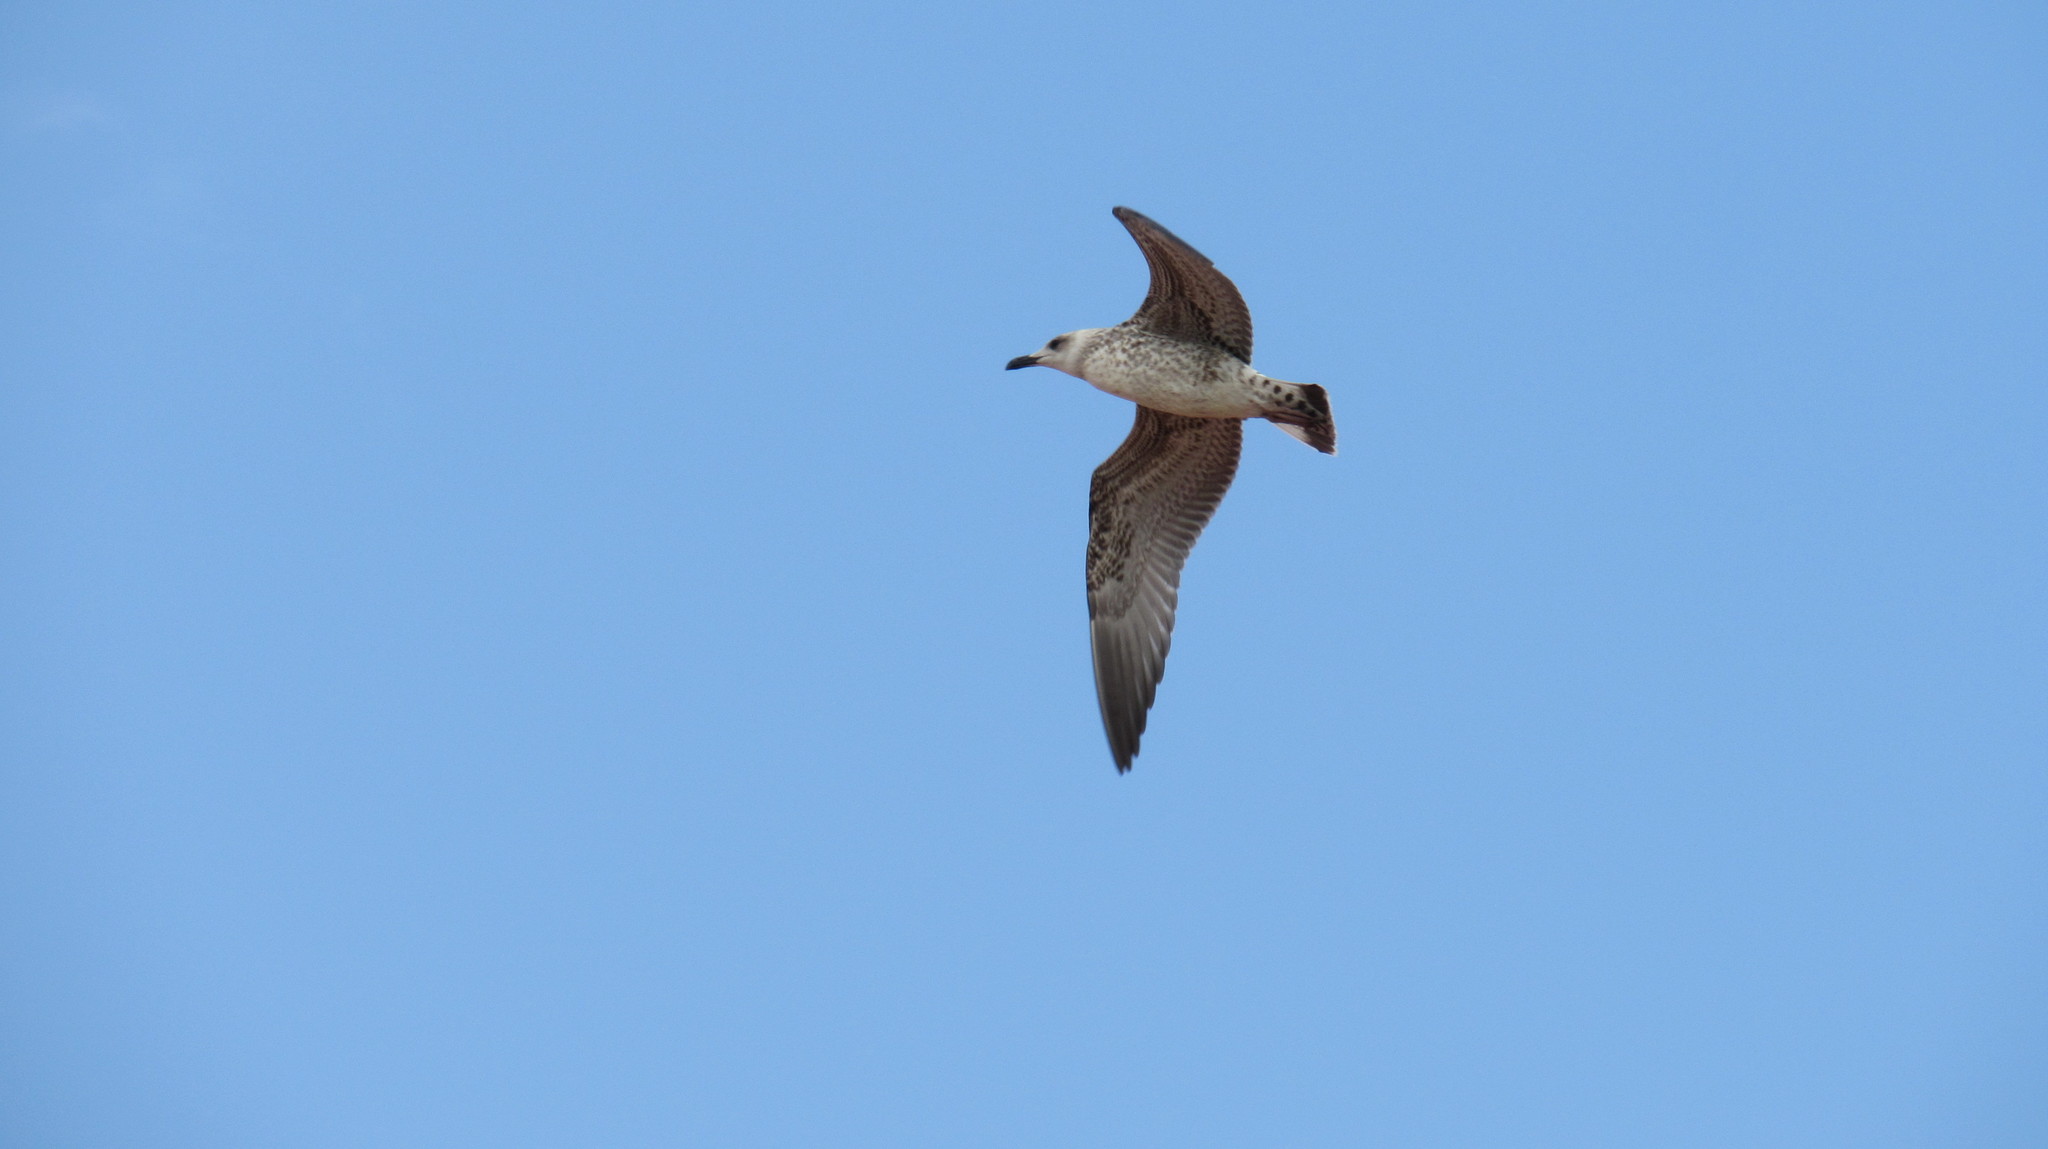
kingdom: Animalia
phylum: Chordata
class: Aves
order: Charadriiformes
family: Laridae
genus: Larus
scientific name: Larus cachinnans
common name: Caspian gull
